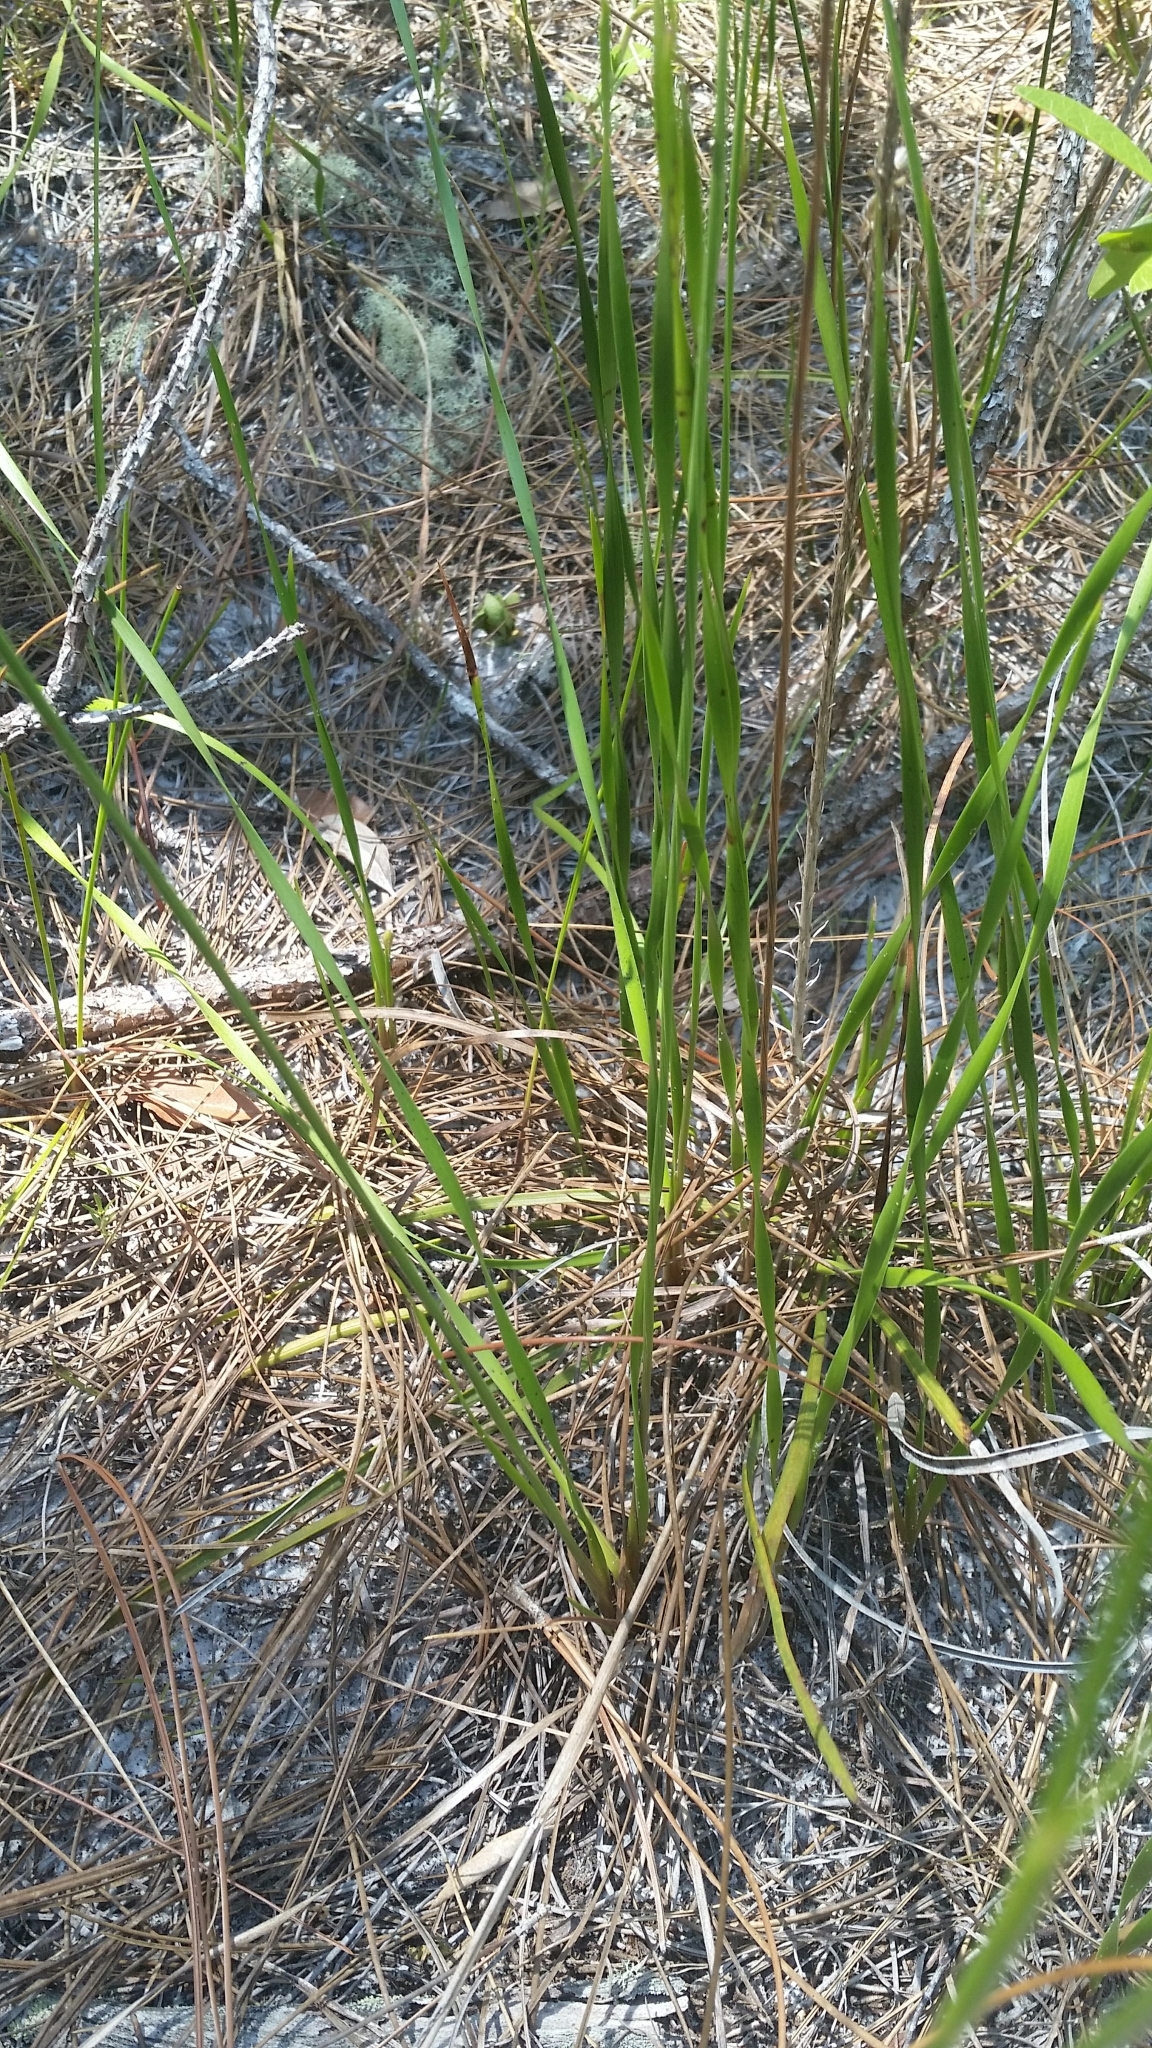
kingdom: Plantae
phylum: Tracheophyta
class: Liliopsida
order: Poales
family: Xyridaceae
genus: Xyris
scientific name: Xyris caroliniana
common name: Carolina yellow-eyed-grass
